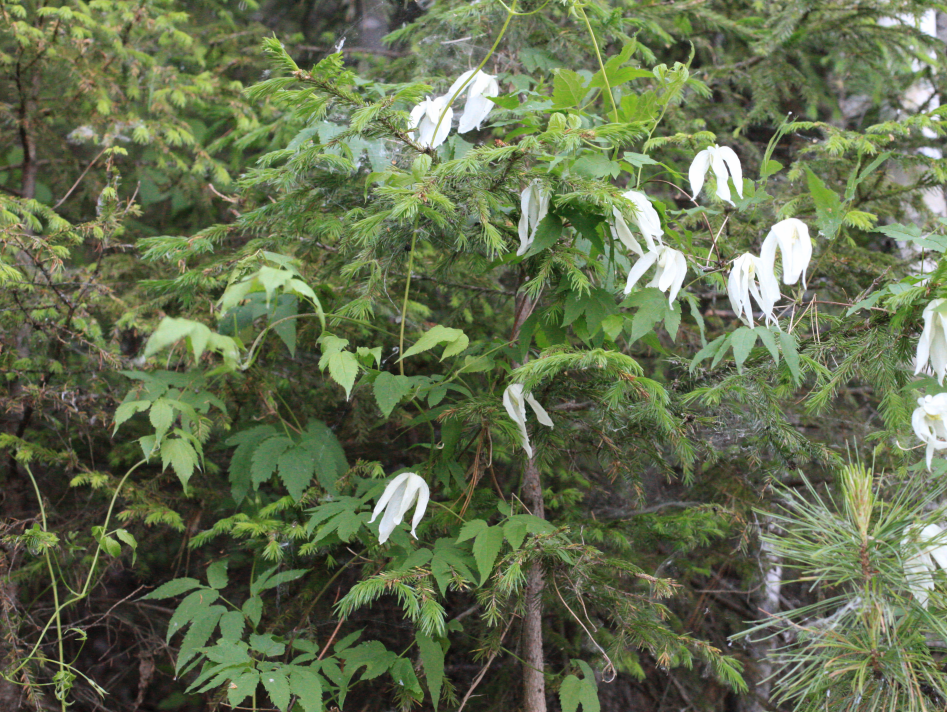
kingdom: Plantae
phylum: Tracheophyta
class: Magnoliopsida
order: Ranunculales
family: Ranunculaceae
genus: Clematis
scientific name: Clematis sibirica
